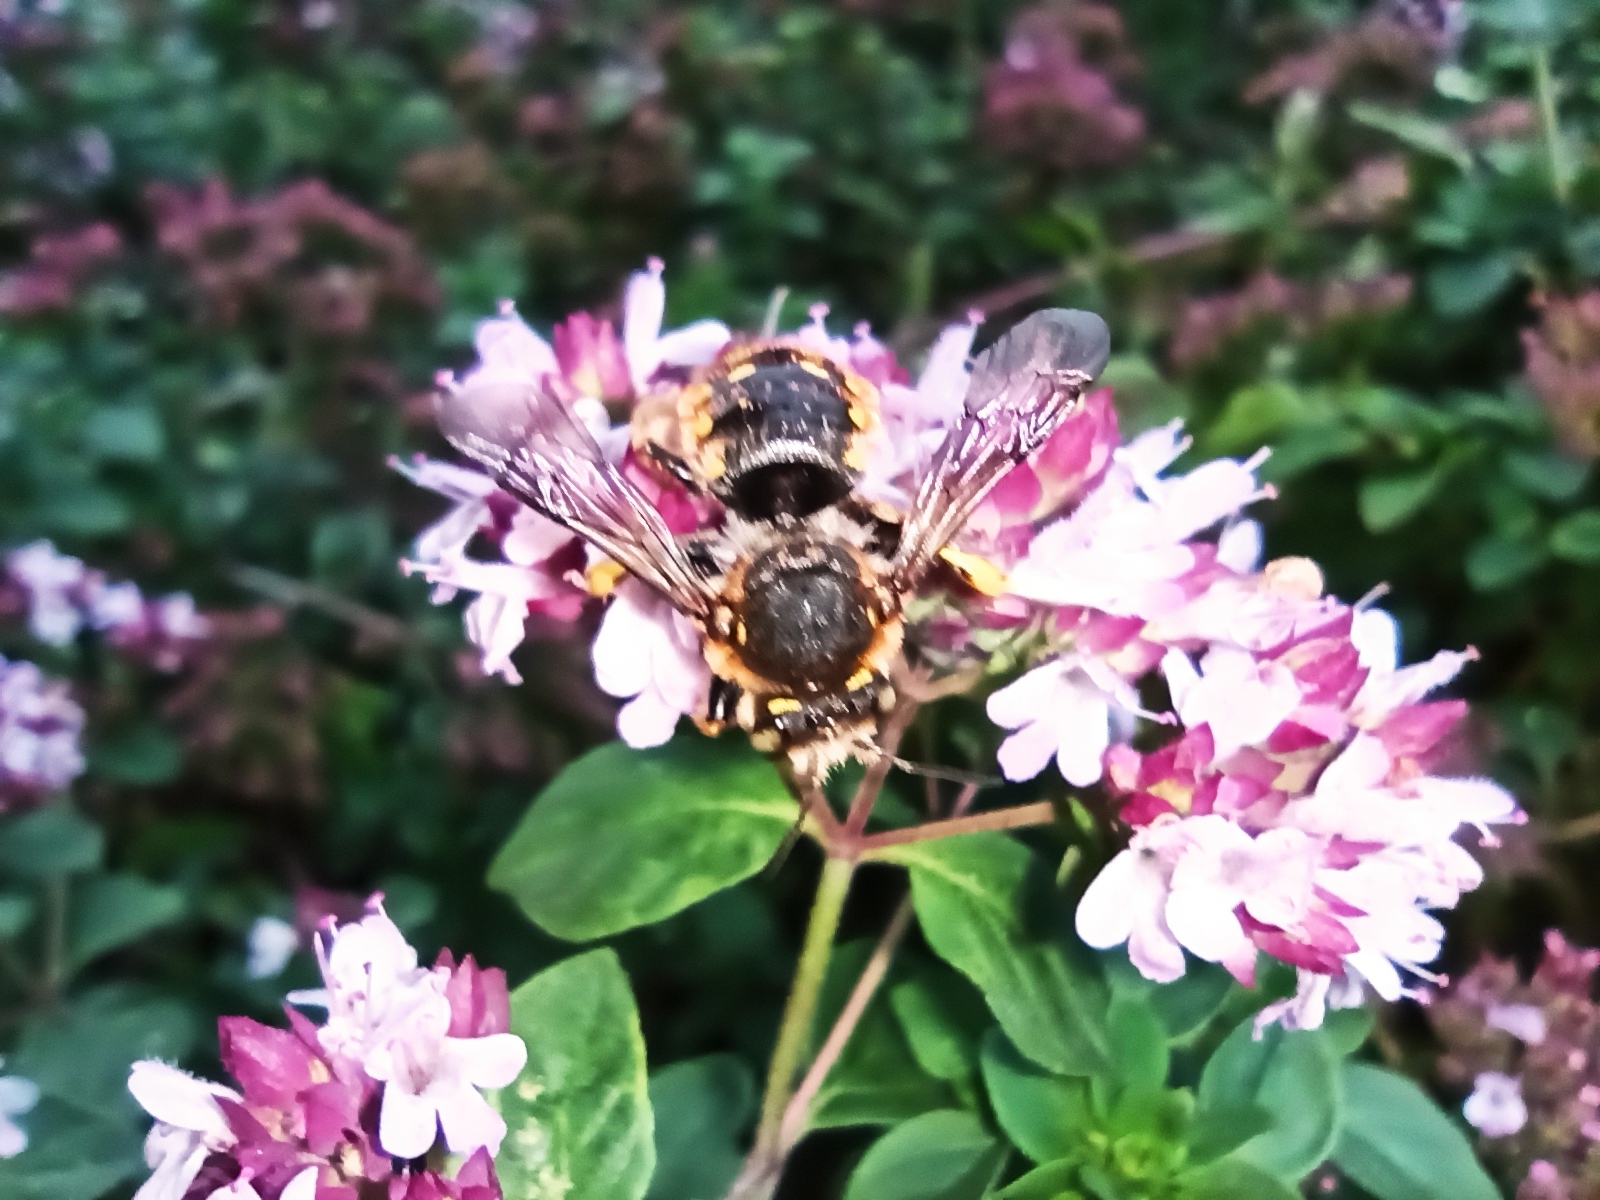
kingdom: Animalia
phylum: Arthropoda
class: Insecta
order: Hymenoptera
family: Megachilidae
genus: Anthidium
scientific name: Anthidium manicatum
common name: Wool carder bee
